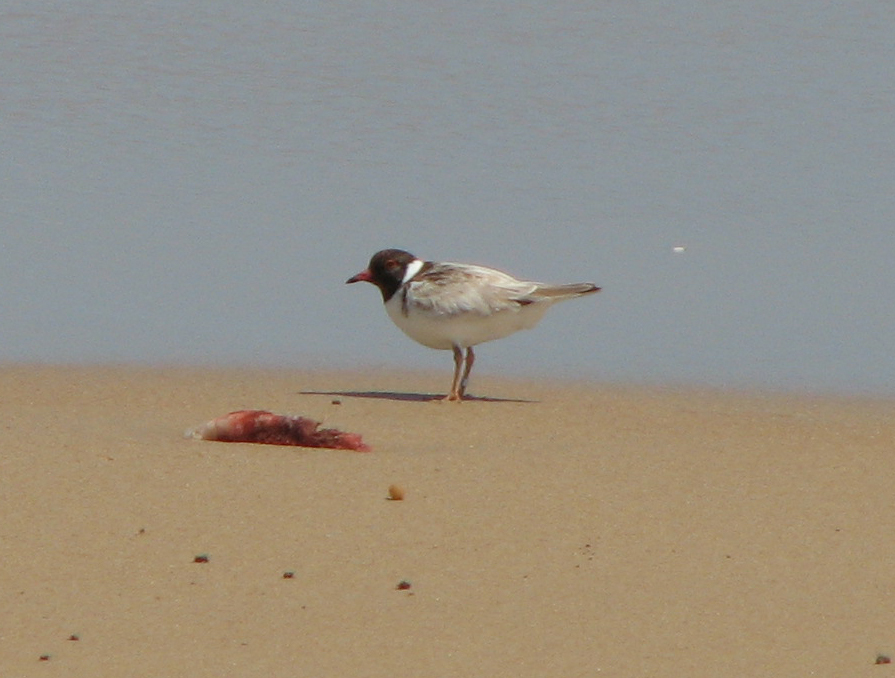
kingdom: Animalia
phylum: Chordata
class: Aves
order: Charadriiformes
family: Charadriidae
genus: Thinornis
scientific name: Thinornis cucullatus
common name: Hooded dotterel
